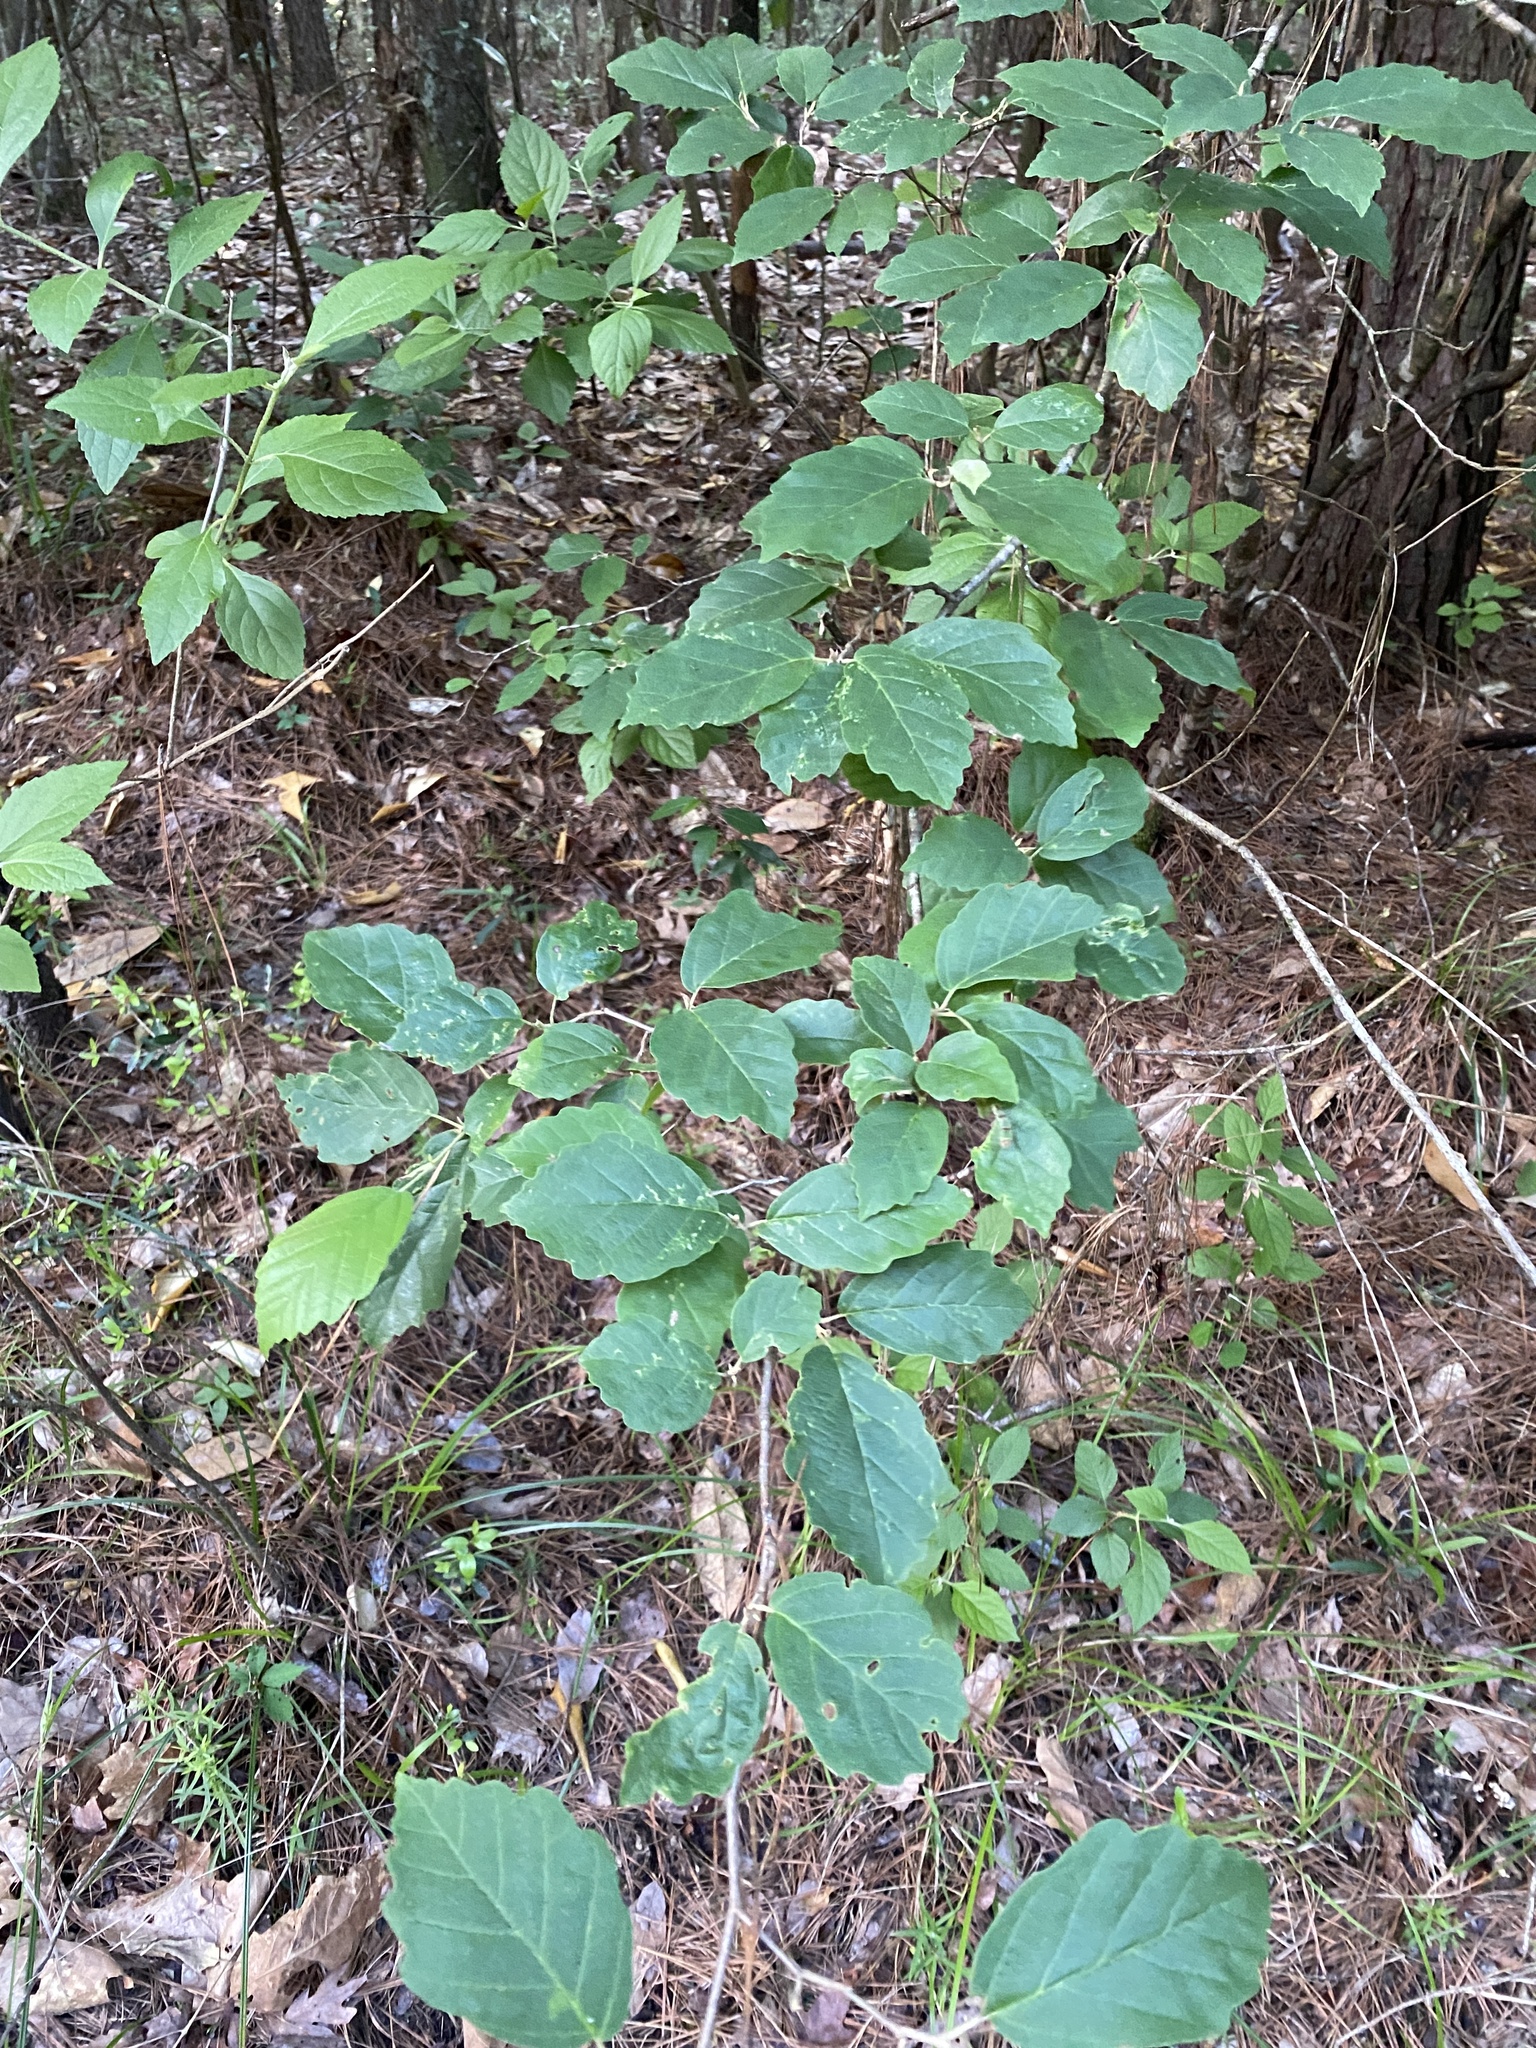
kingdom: Plantae
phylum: Tracheophyta
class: Magnoliopsida
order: Saxifragales
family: Hamamelidaceae
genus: Hamamelis
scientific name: Hamamelis virginiana
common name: Witch-hazel
